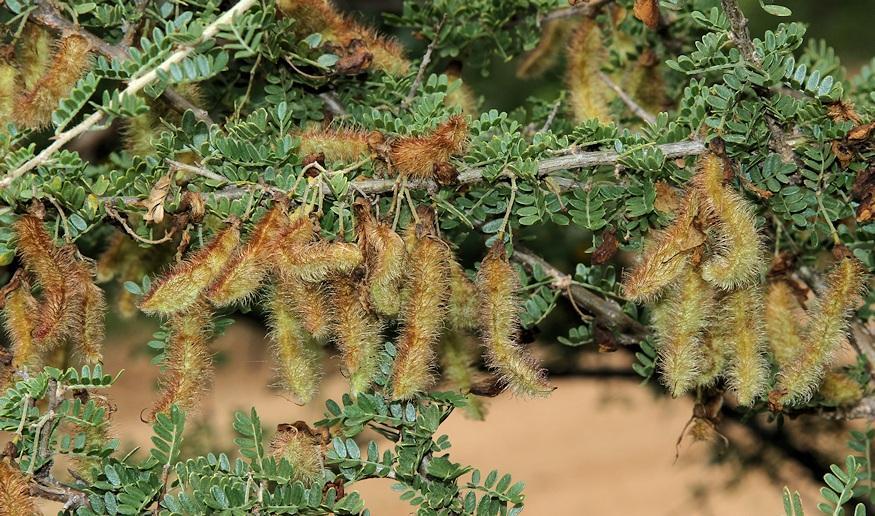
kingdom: Plantae
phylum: Tracheophyta
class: Magnoliopsida
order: Fabales
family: Fabaceae
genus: Ormocarpum
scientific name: Ormocarpum trichocarpum
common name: Caterpillar bush
